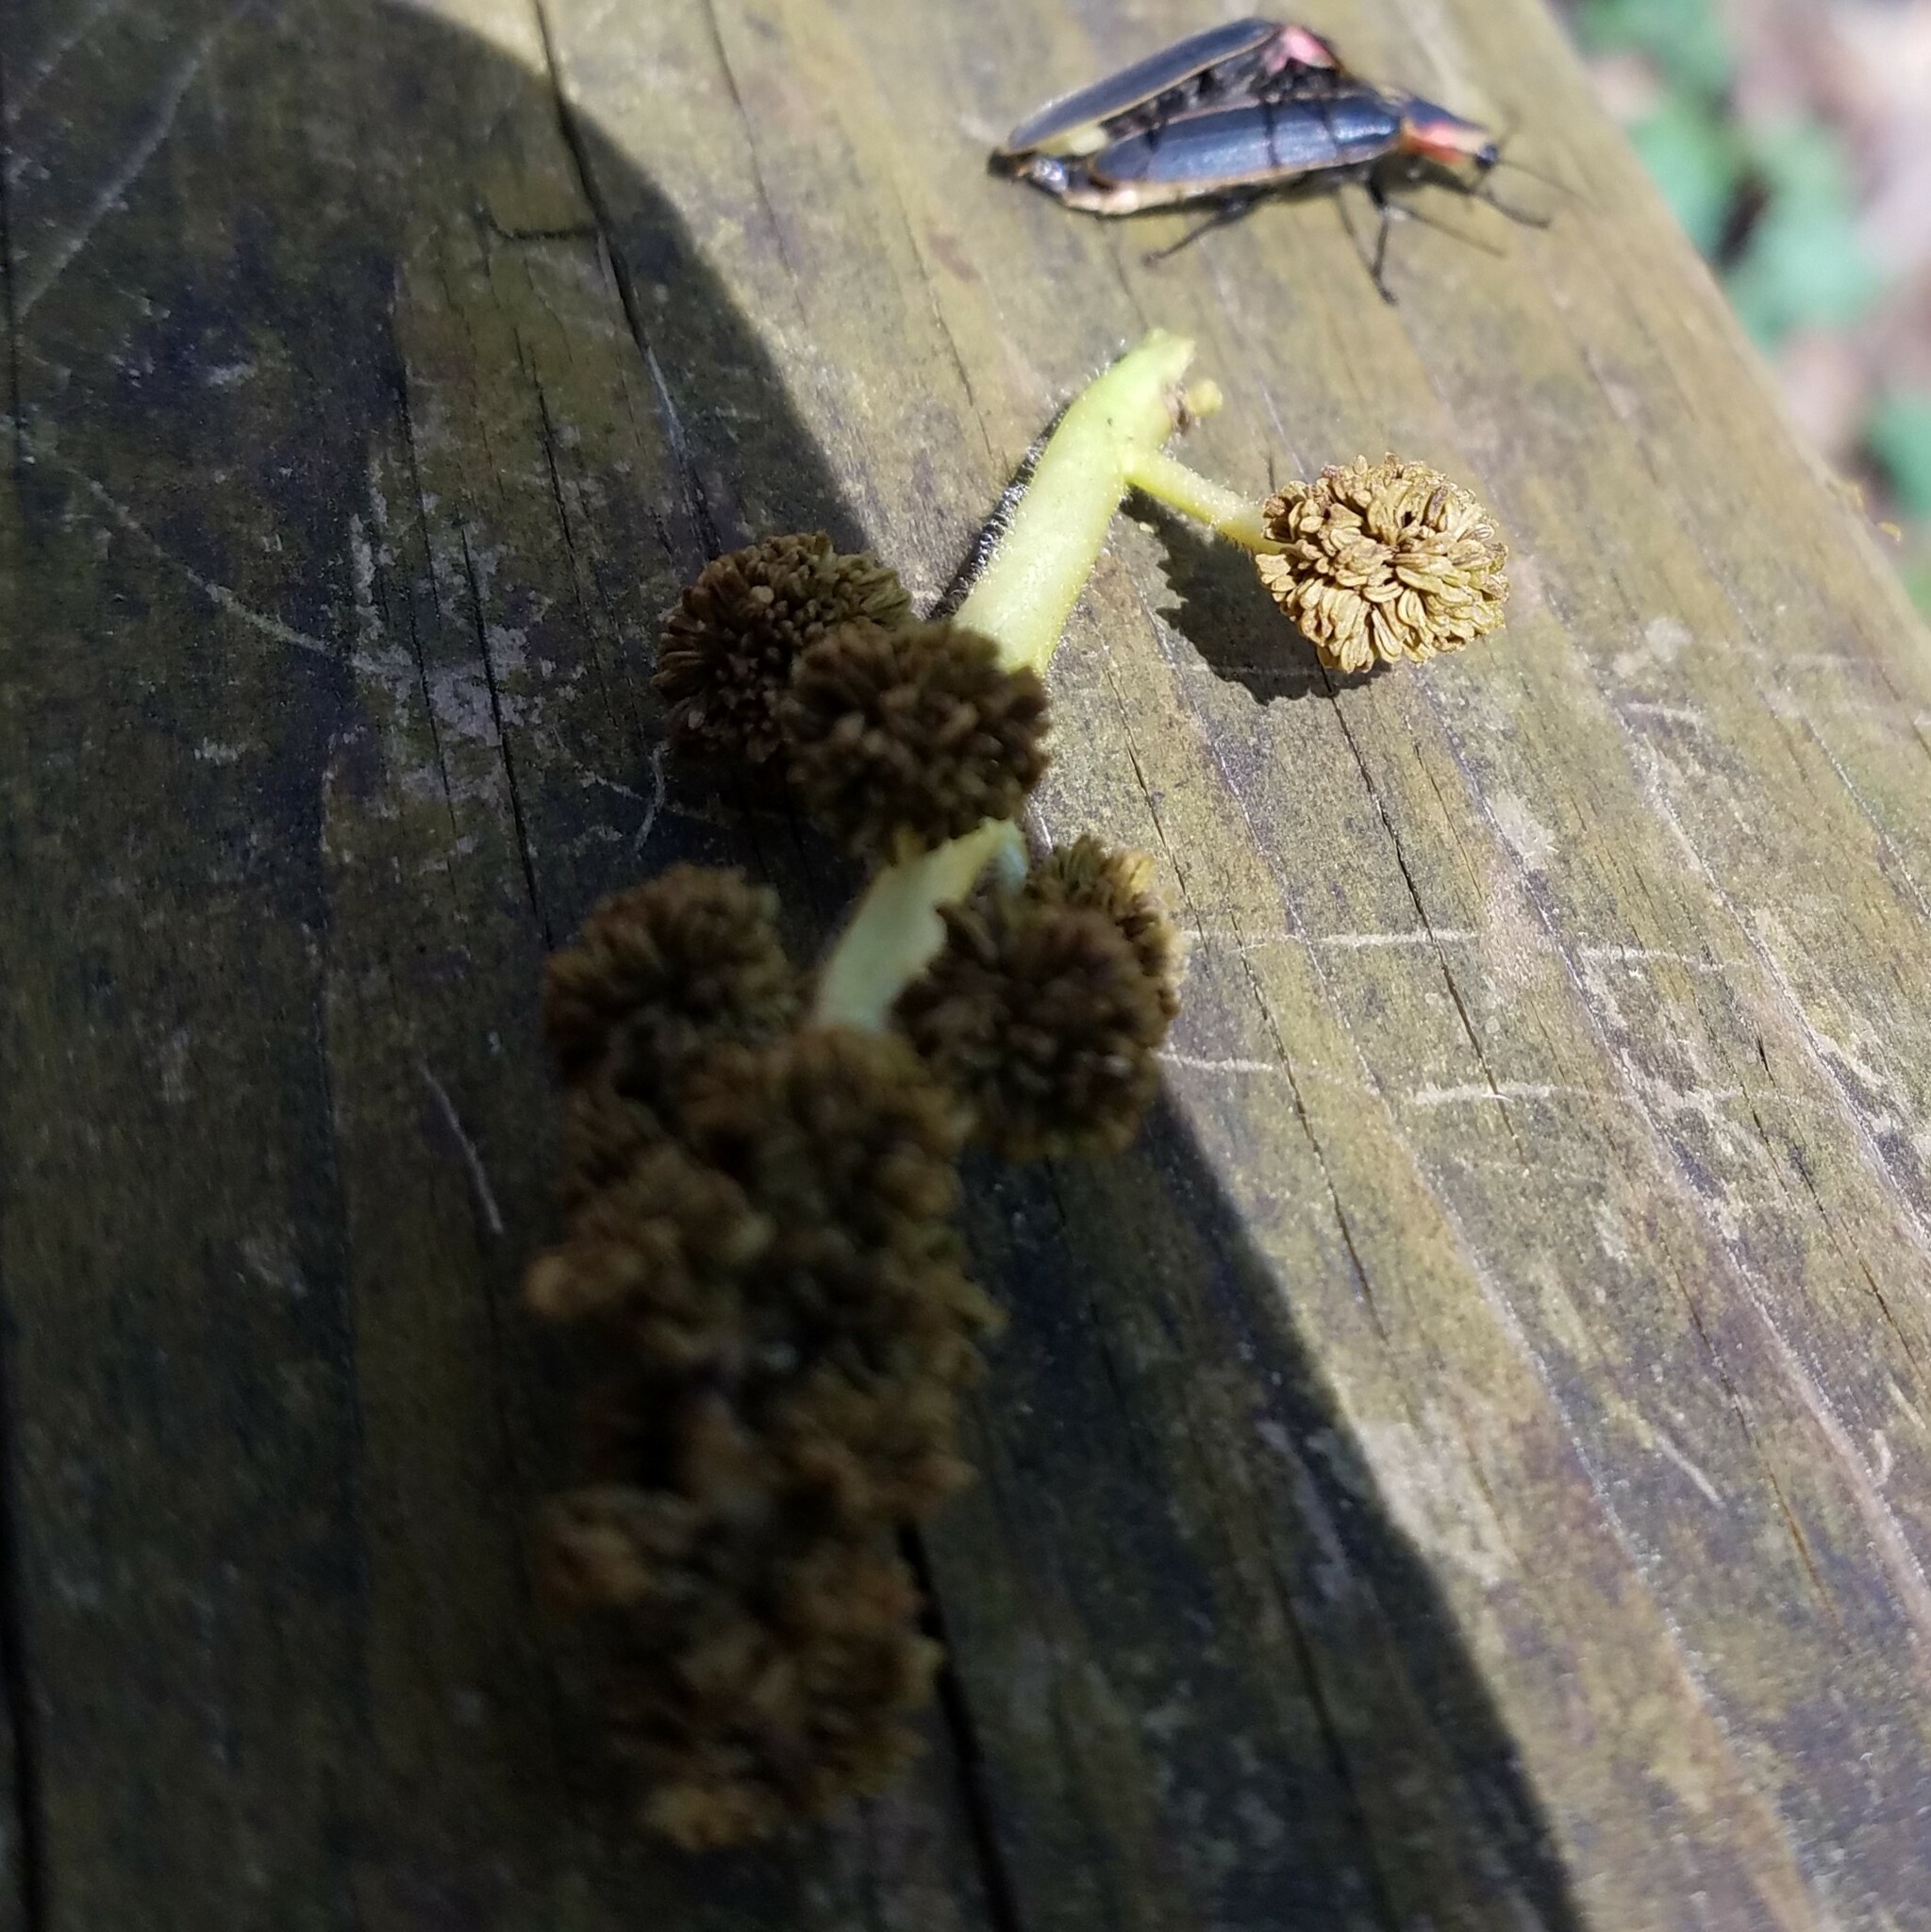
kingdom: Plantae
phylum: Tracheophyta
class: Magnoliopsida
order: Saxifragales
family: Altingiaceae
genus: Liquidambar
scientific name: Liquidambar styraciflua
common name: Sweet gum
